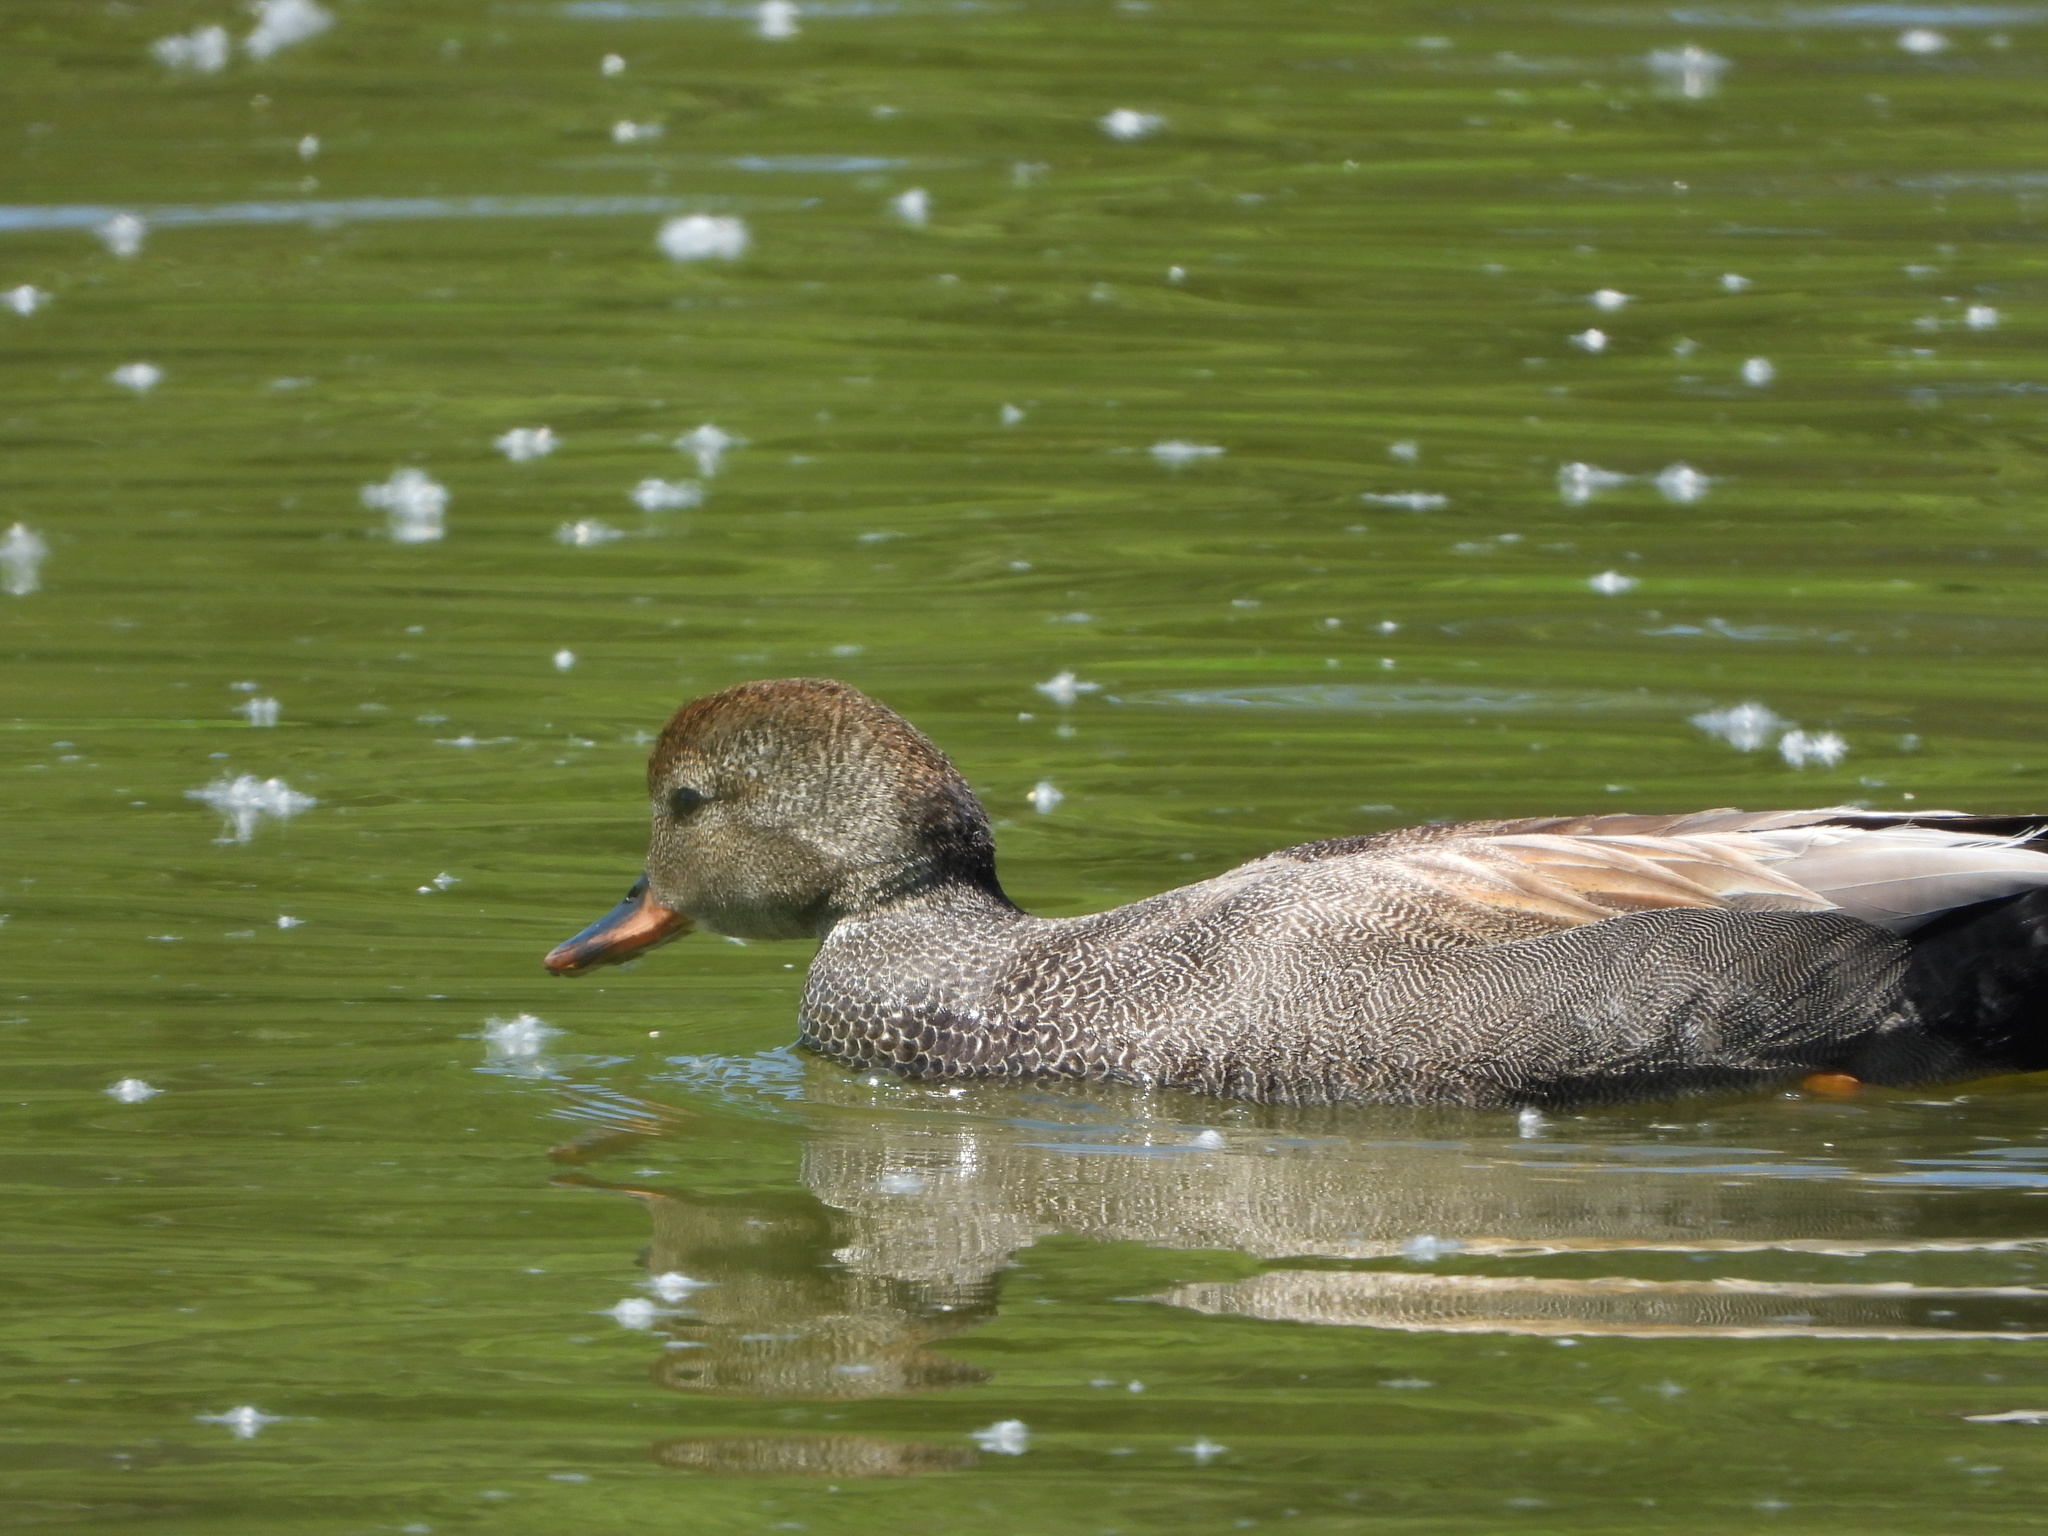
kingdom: Animalia
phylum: Chordata
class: Aves
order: Anseriformes
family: Anatidae
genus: Mareca
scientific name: Mareca strepera
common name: Gadwall
